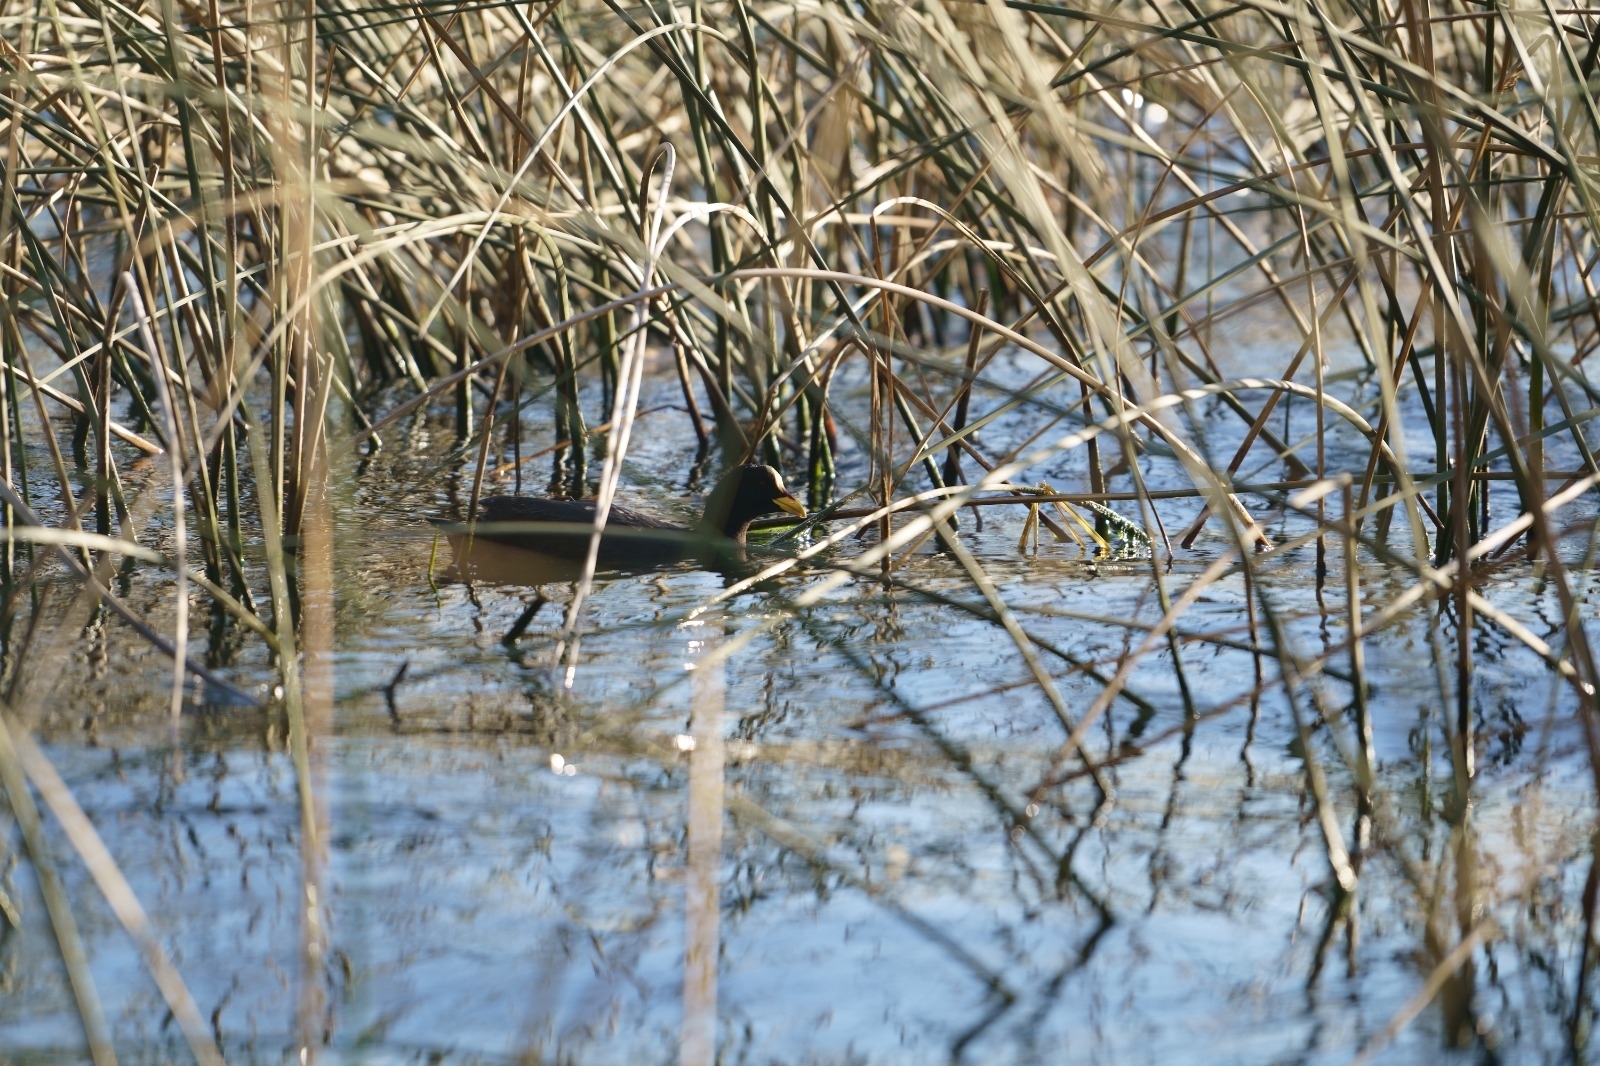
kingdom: Animalia
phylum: Chordata
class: Aves
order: Gruiformes
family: Rallidae
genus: Fulica
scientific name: Fulica armillata
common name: Red-gartered coot
